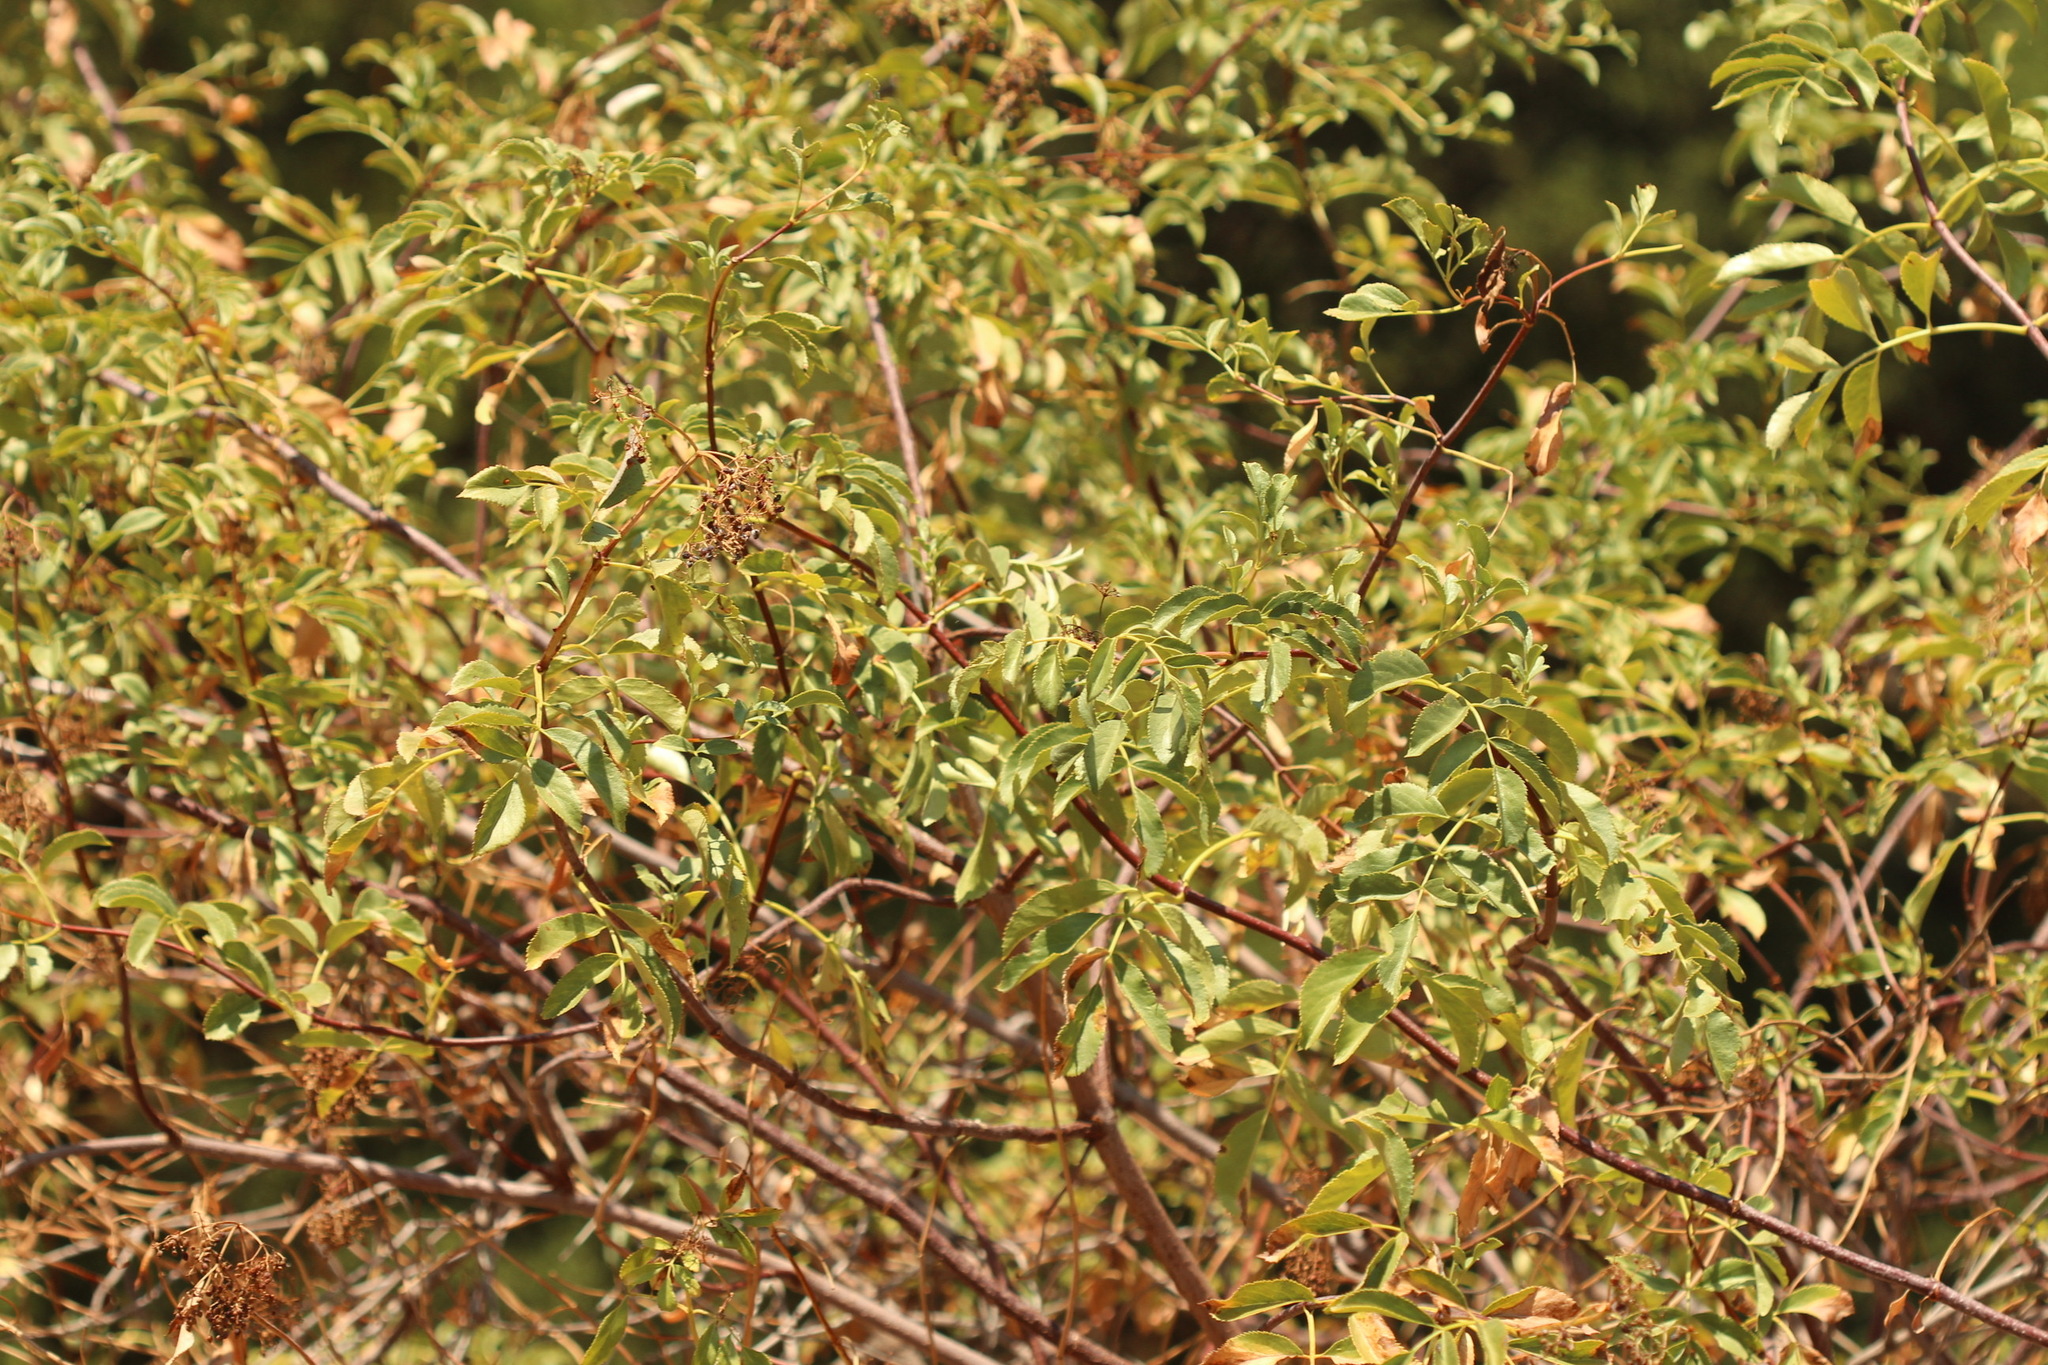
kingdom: Plantae
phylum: Tracheophyta
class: Magnoliopsida
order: Dipsacales
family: Viburnaceae
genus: Sambucus
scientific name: Sambucus cerulea
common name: Blue elder
